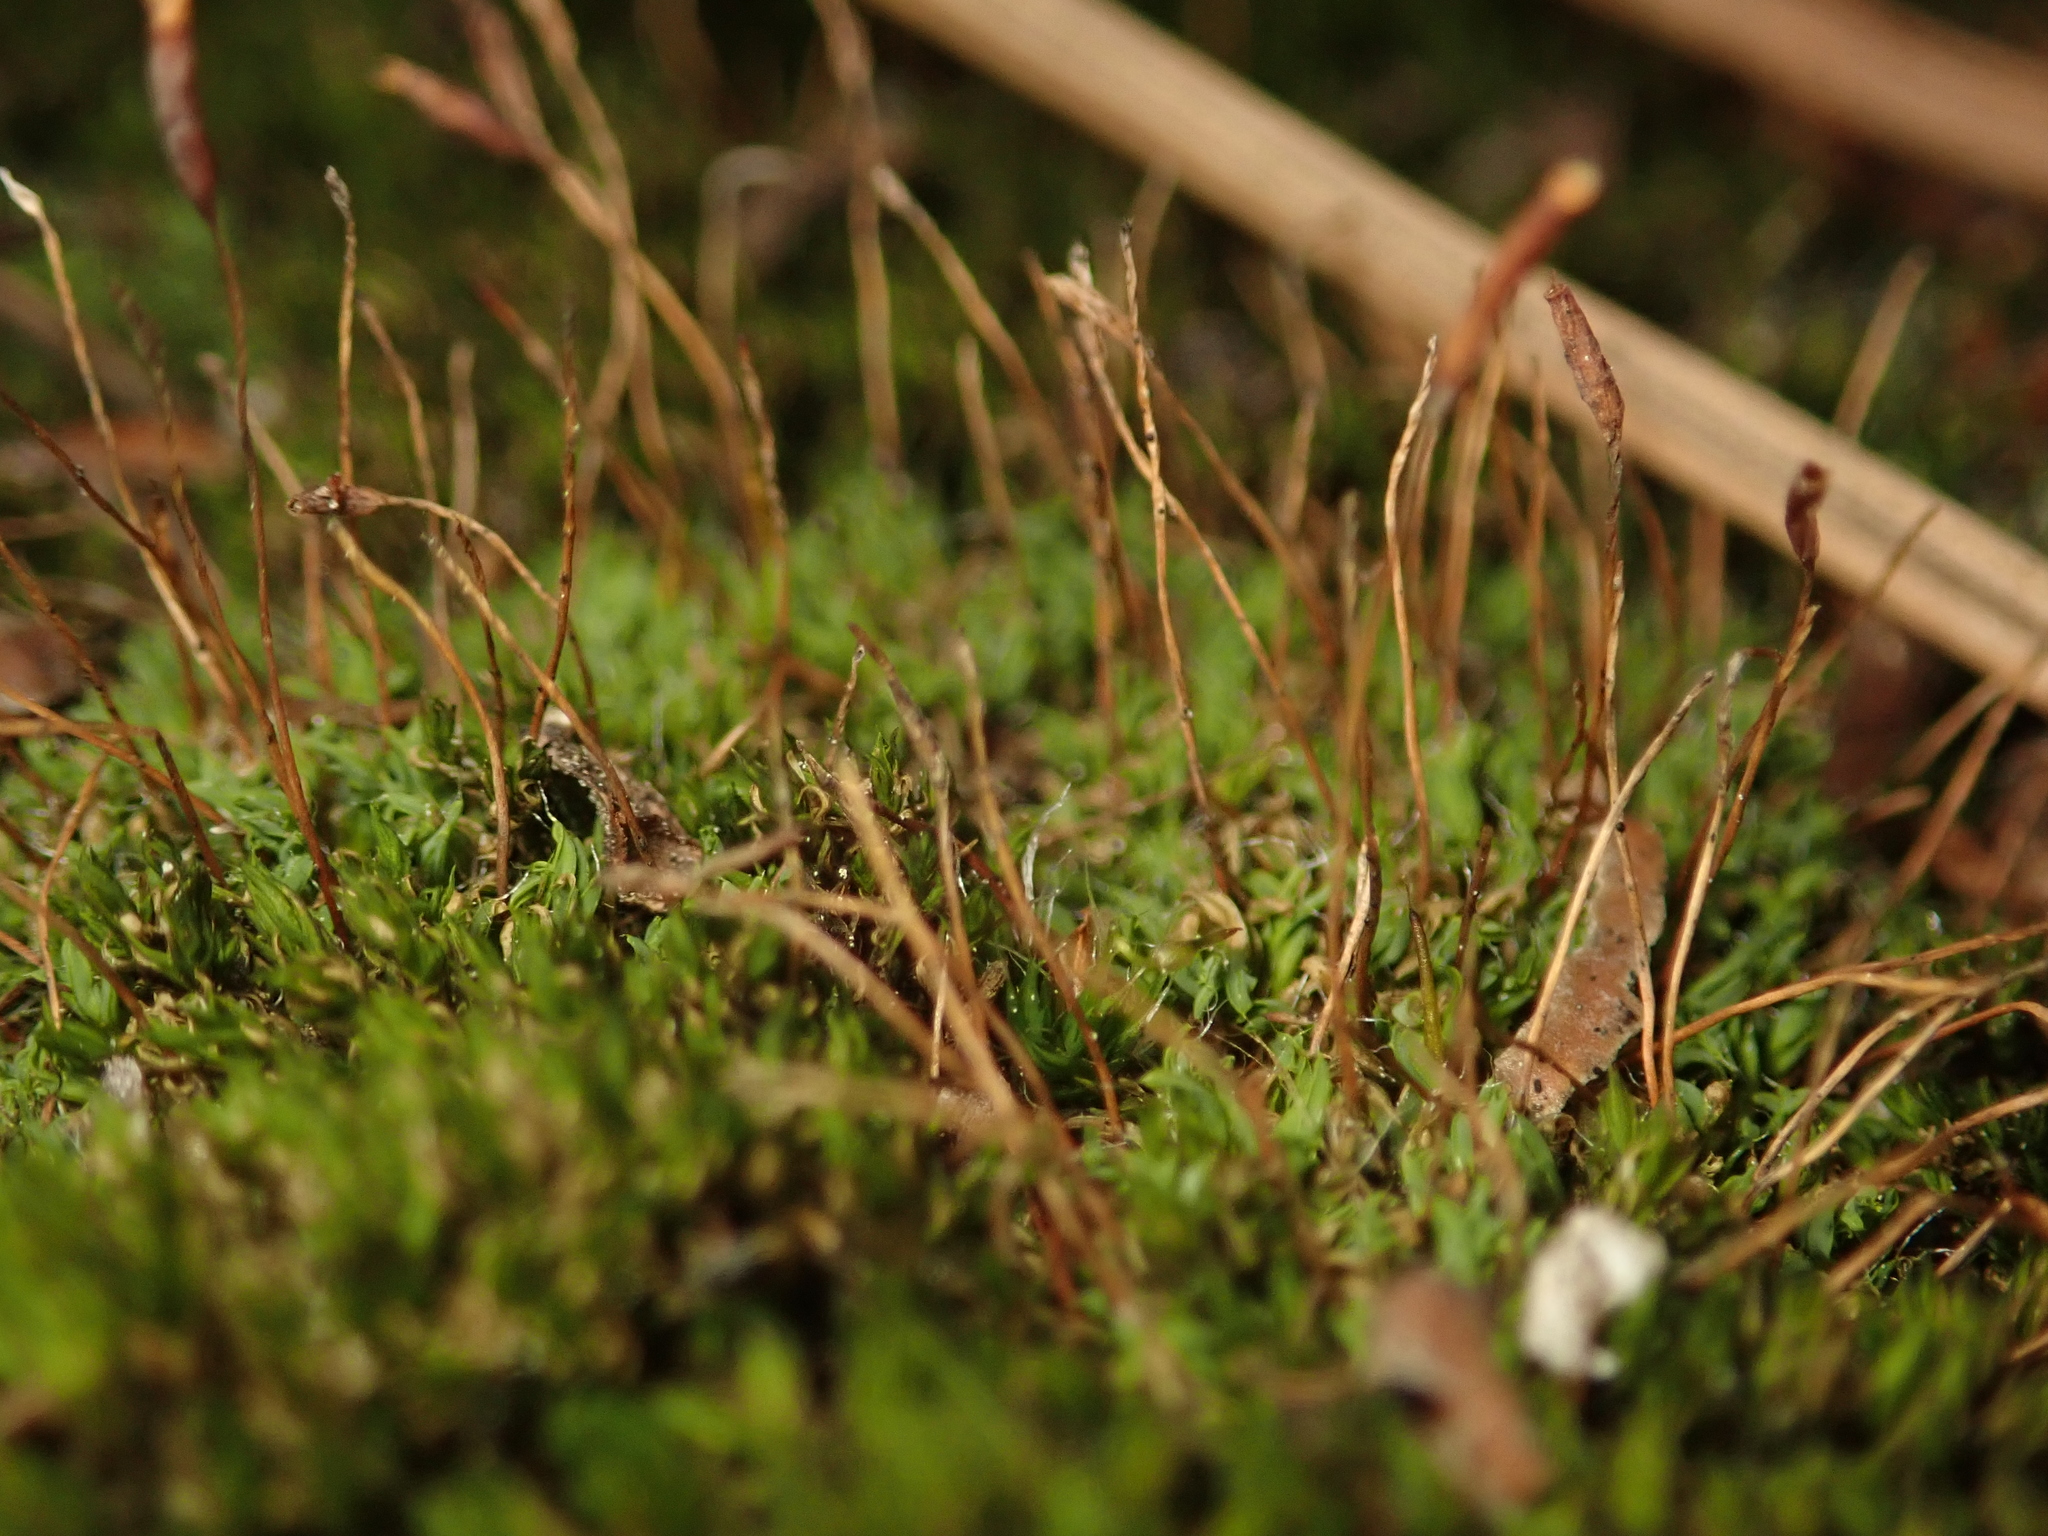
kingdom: Plantae
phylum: Bryophyta
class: Bryopsida
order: Pottiales
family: Pottiaceae
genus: Tortula
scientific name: Tortula muralis
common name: Wall screw-moss
